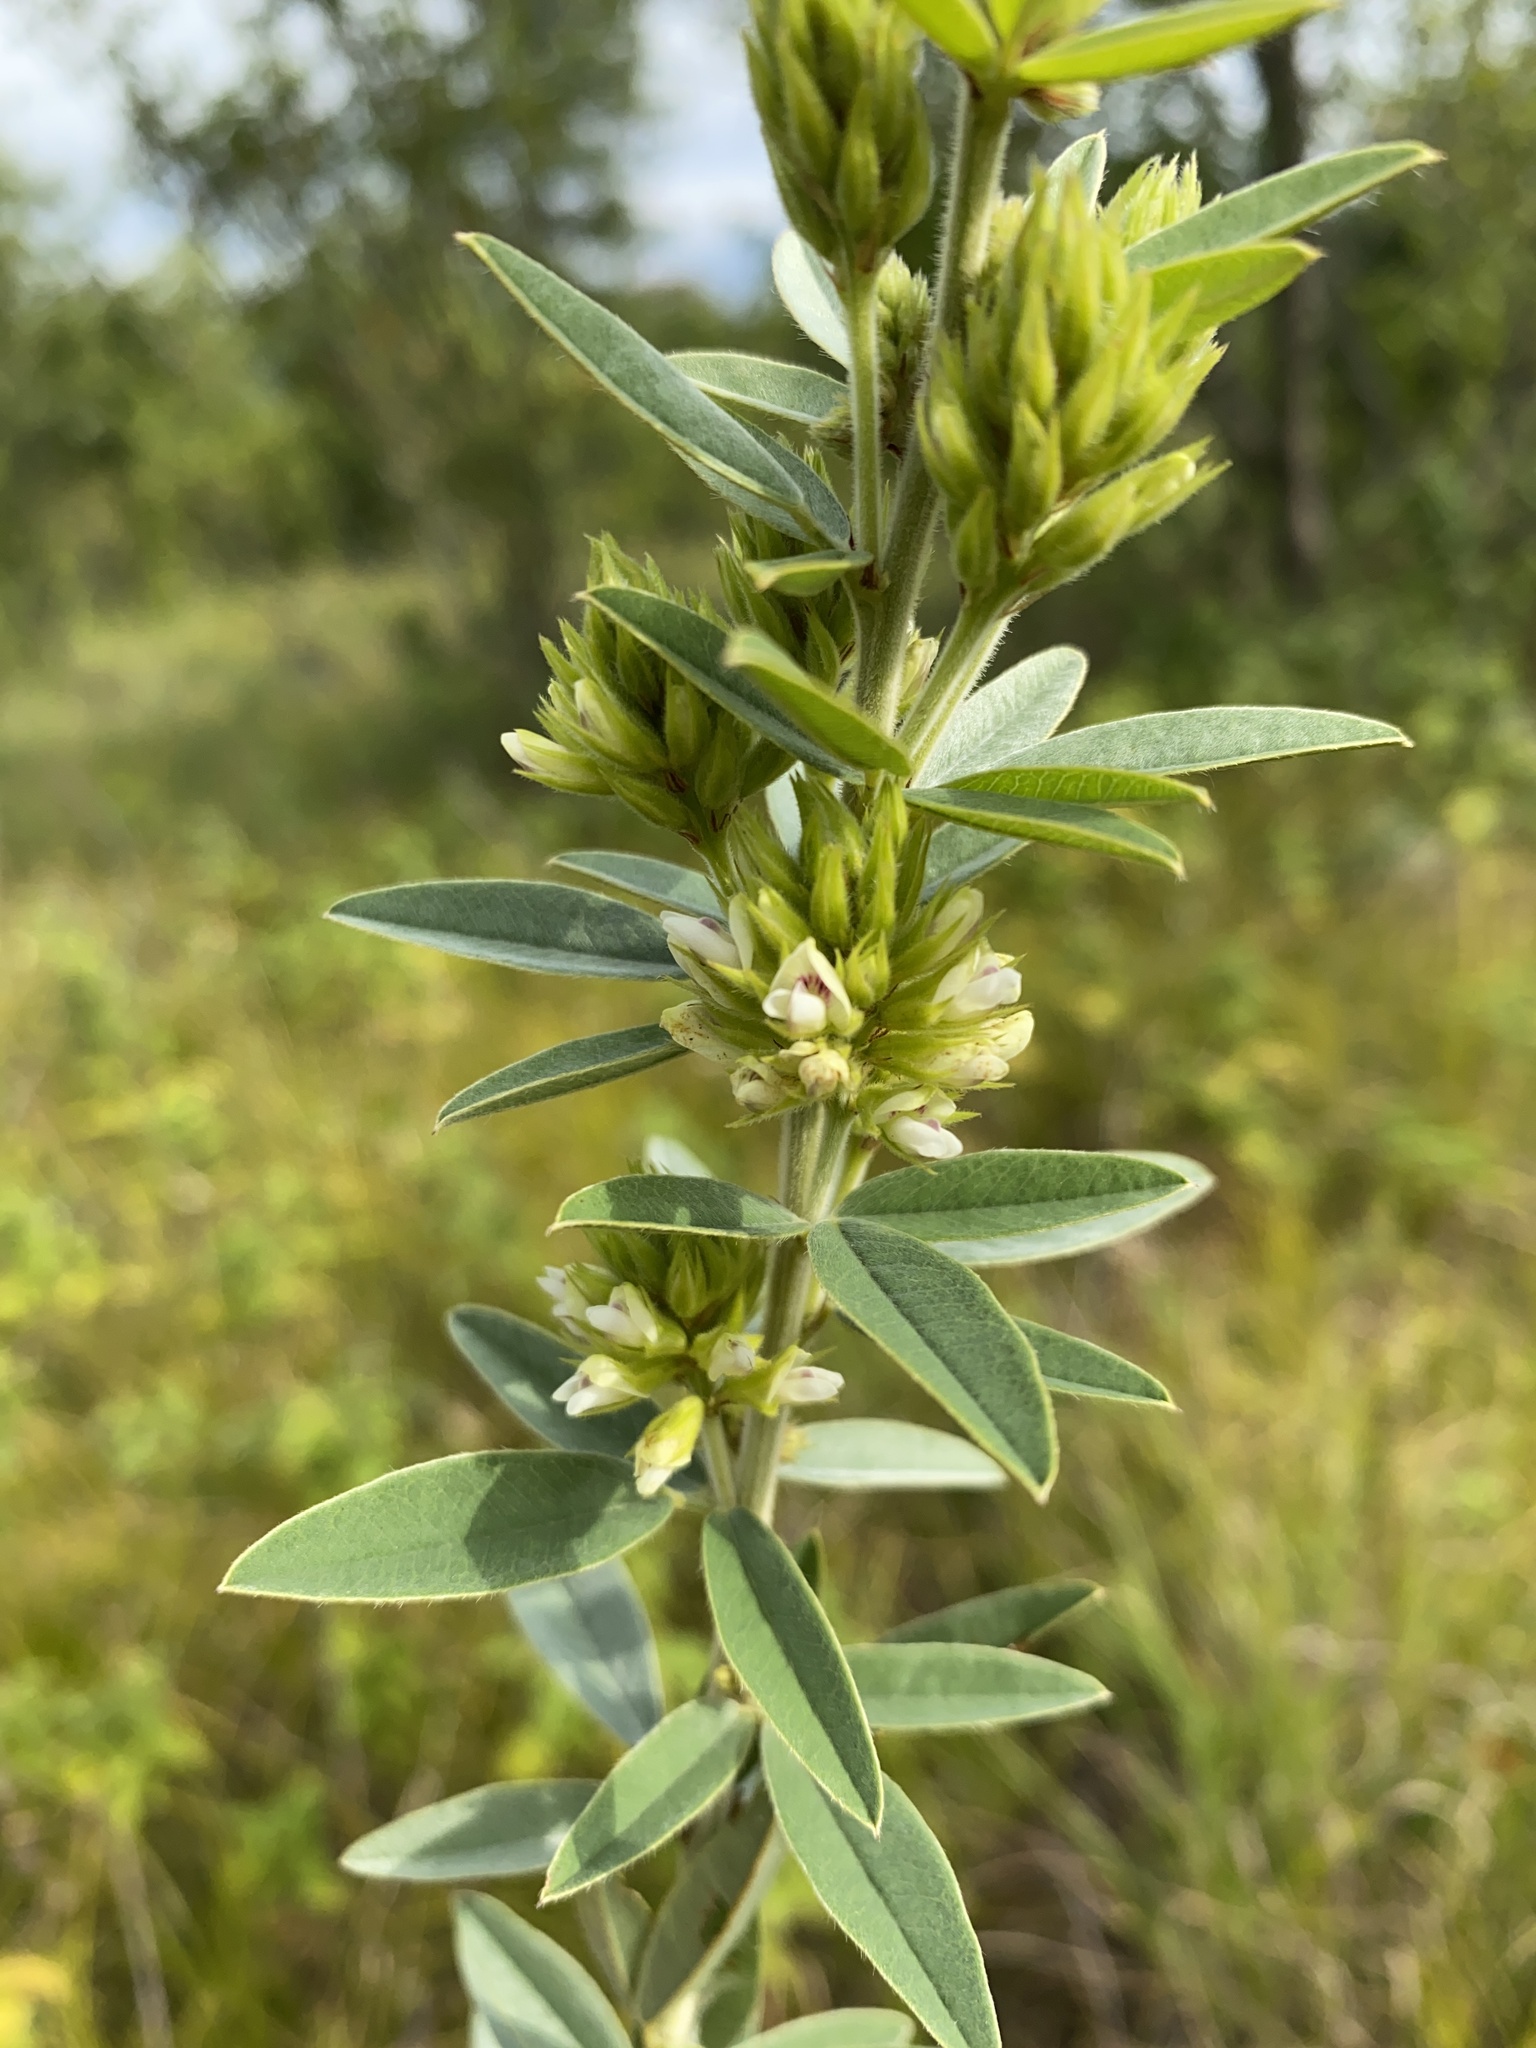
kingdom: Plantae
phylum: Tracheophyta
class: Magnoliopsida
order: Fabales
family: Fabaceae
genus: Lespedeza
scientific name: Lespedeza capitata
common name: Dusty clover
